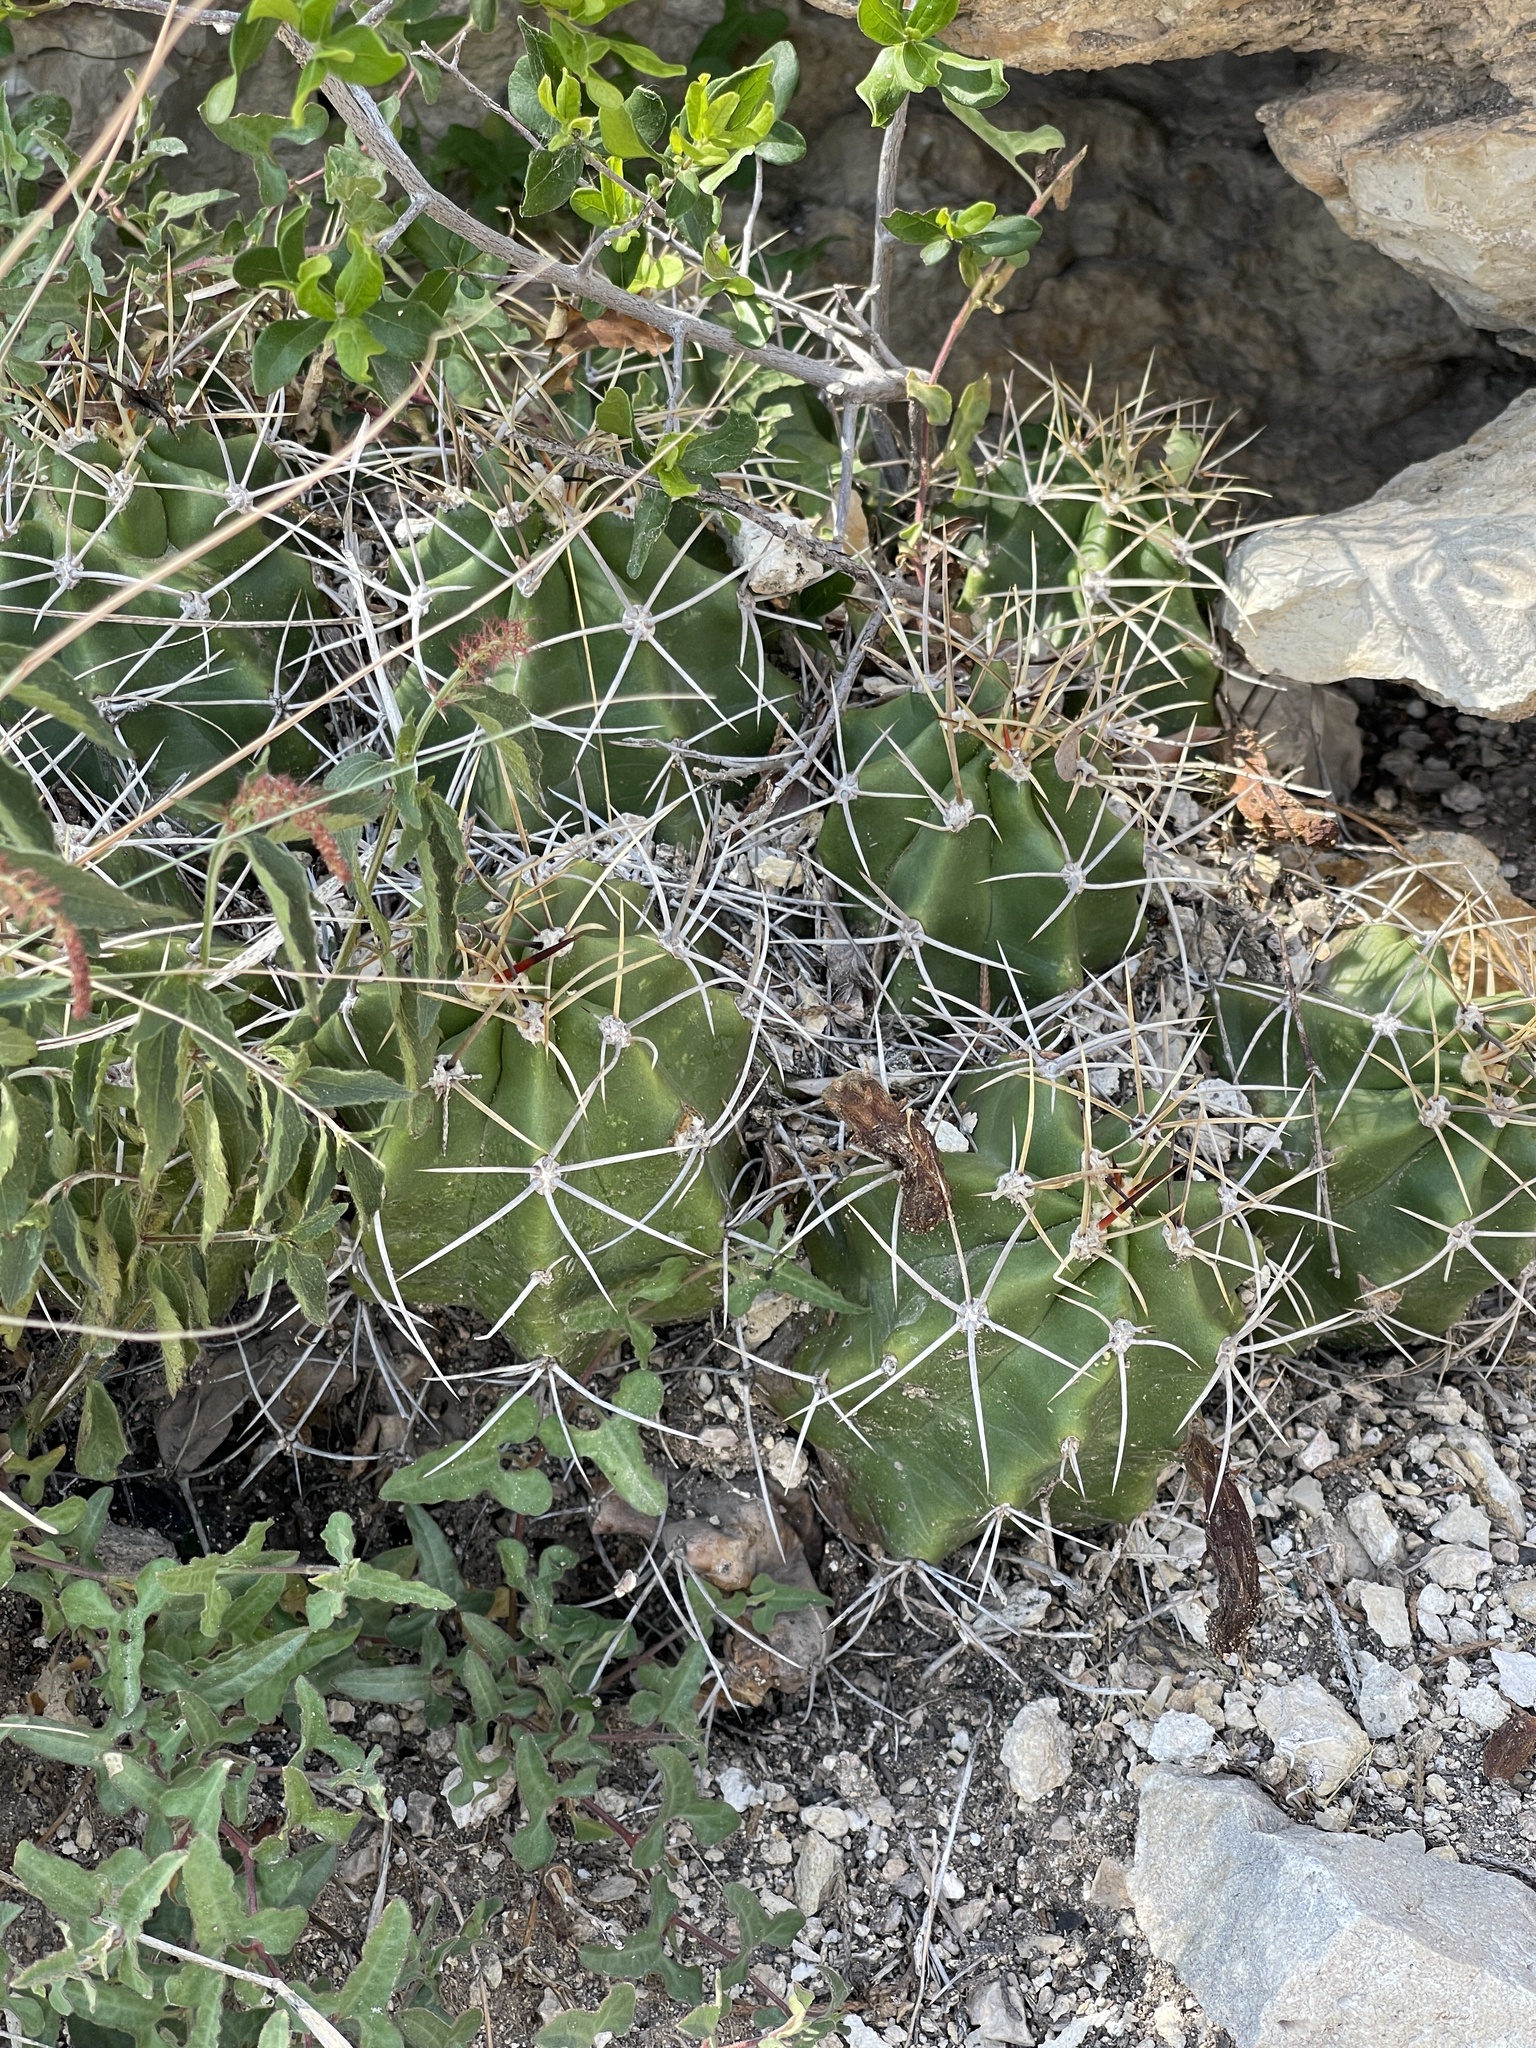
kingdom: Plantae
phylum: Tracheophyta
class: Magnoliopsida
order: Caryophyllales
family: Cactaceae
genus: Echinocereus
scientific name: Echinocereus coccineus
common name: Scarlet hedgehog cactus
